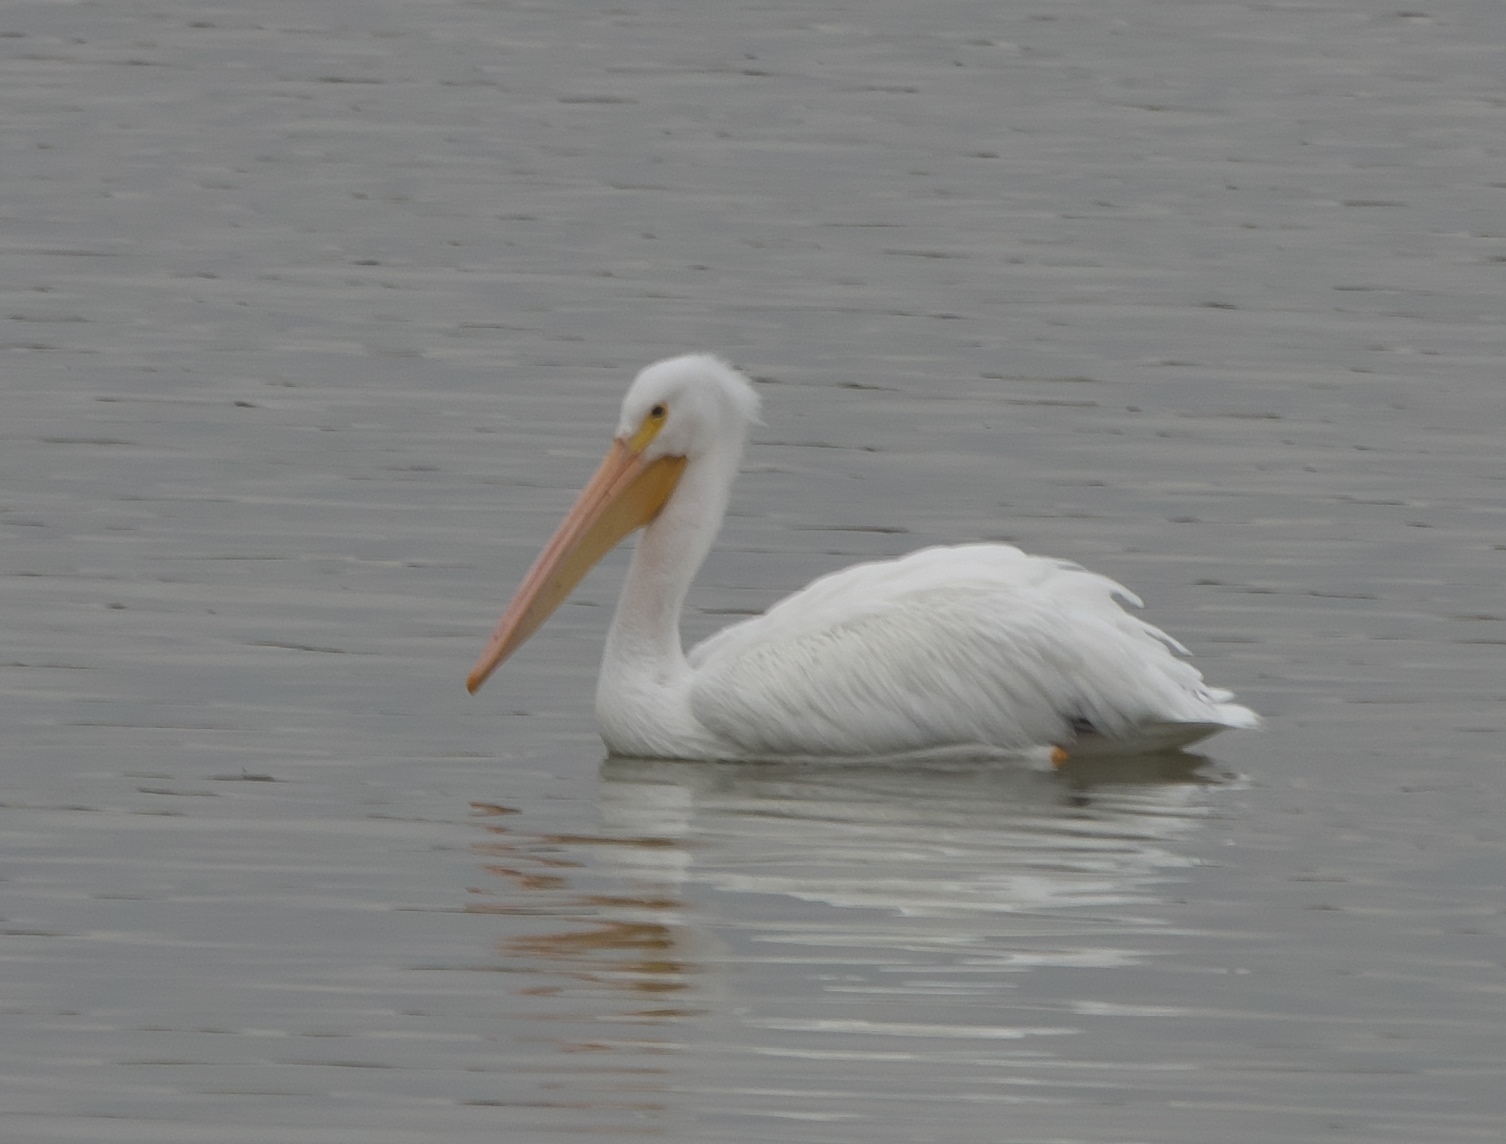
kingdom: Animalia
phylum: Chordata
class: Aves
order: Pelecaniformes
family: Pelecanidae
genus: Pelecanus
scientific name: Pelecanus erythrorhynchos
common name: American white pelican
